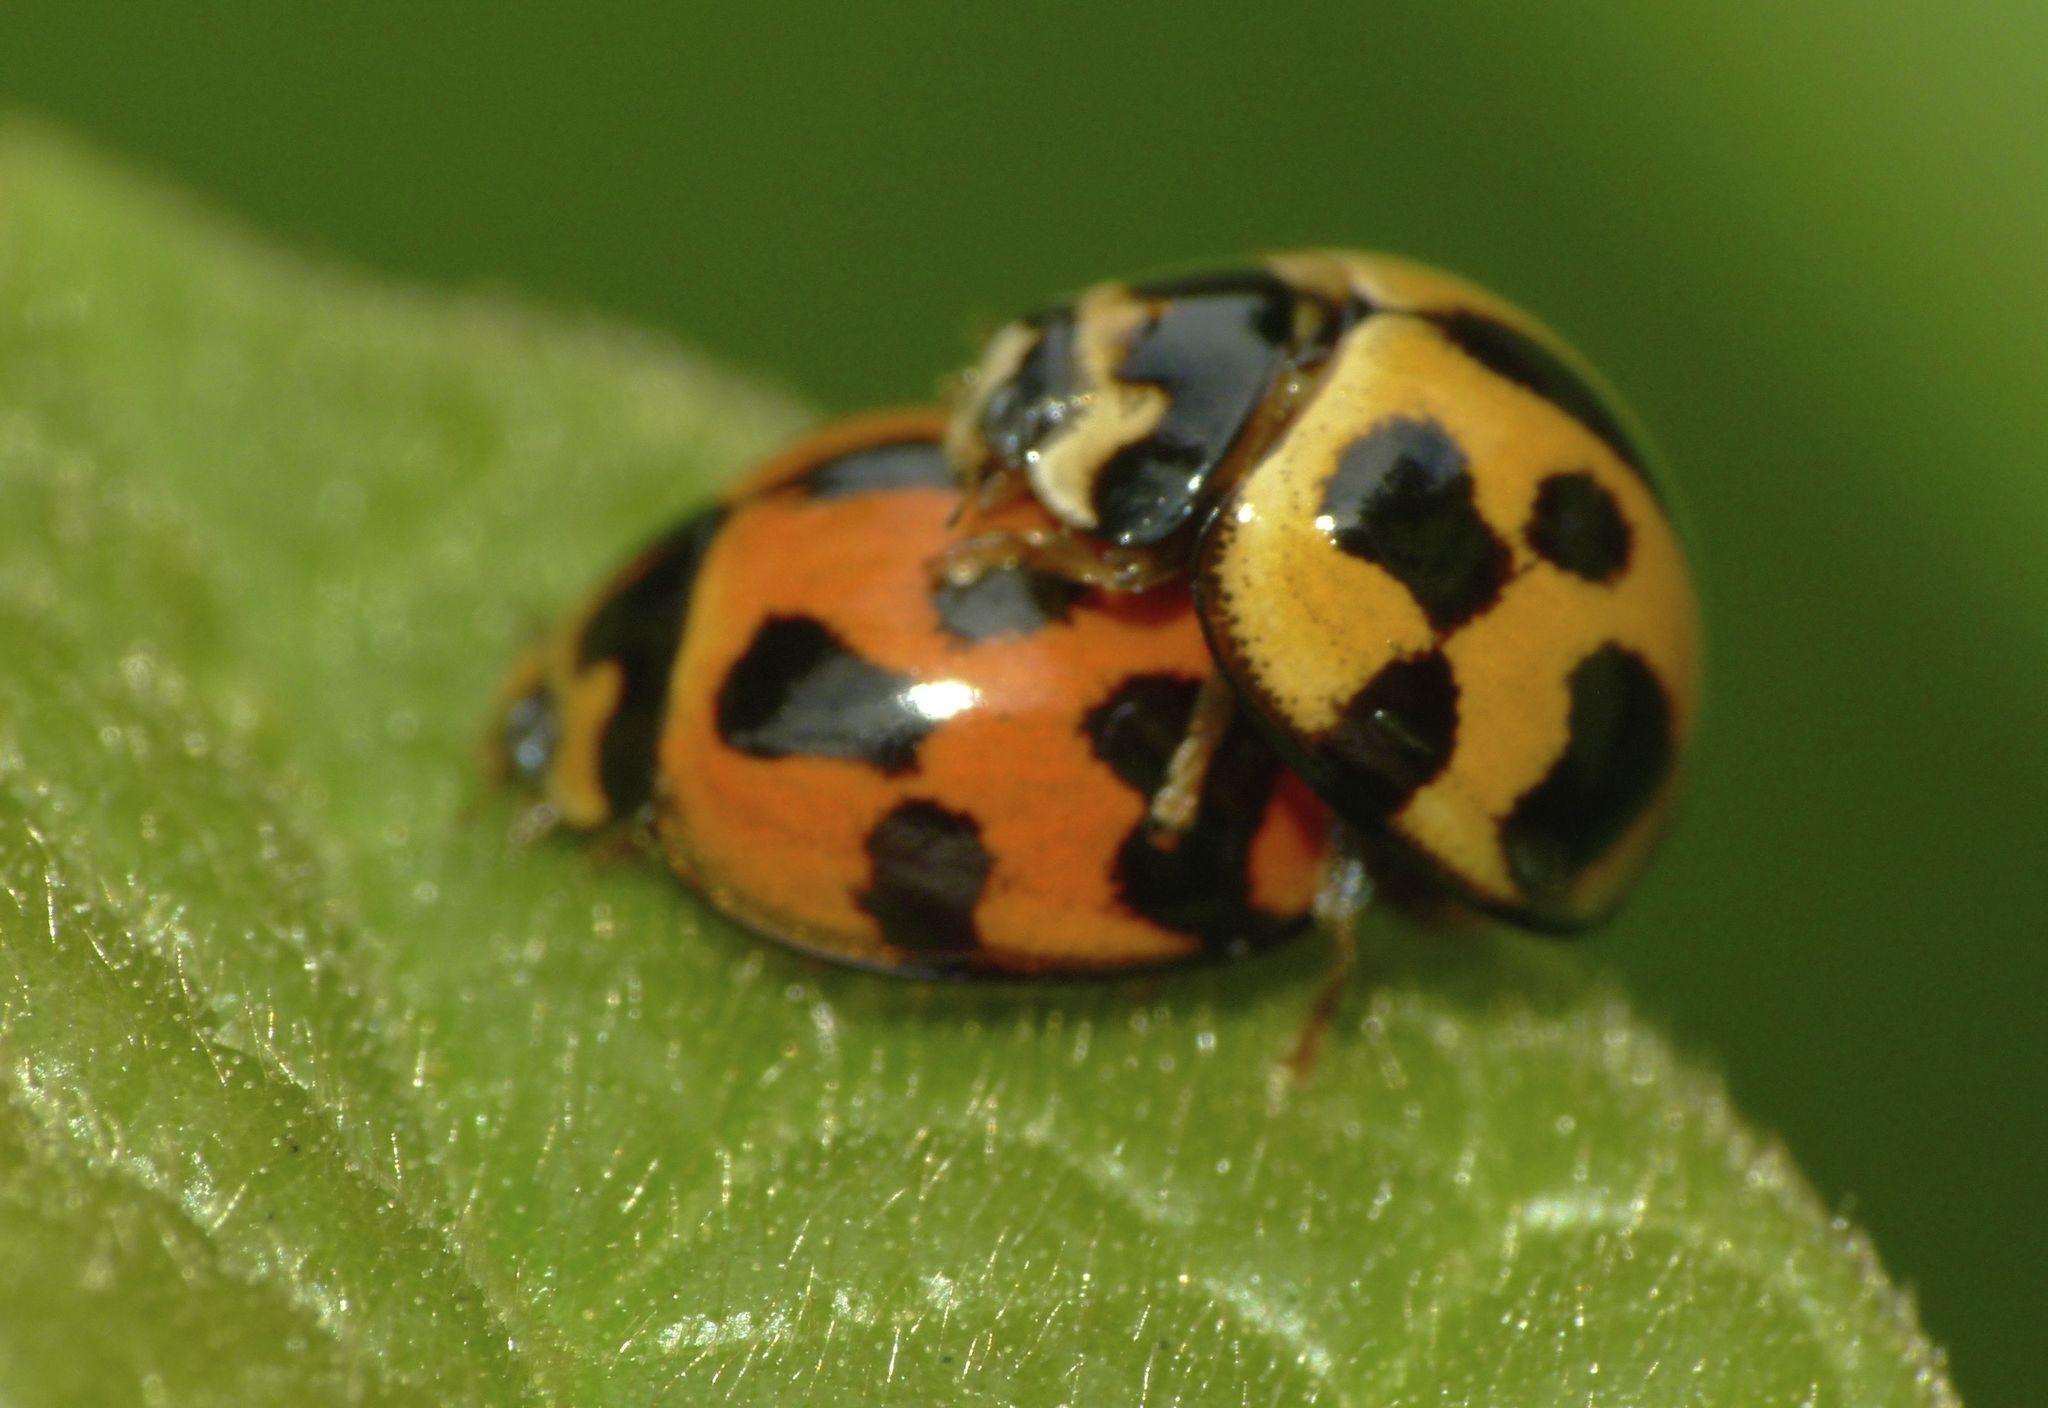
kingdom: Animalia
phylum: Arthropoda
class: Insecta
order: Coleoptera
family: Coccinellidae
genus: Coelophora
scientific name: Coelophora inaequalis
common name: Common australian lady beetle
